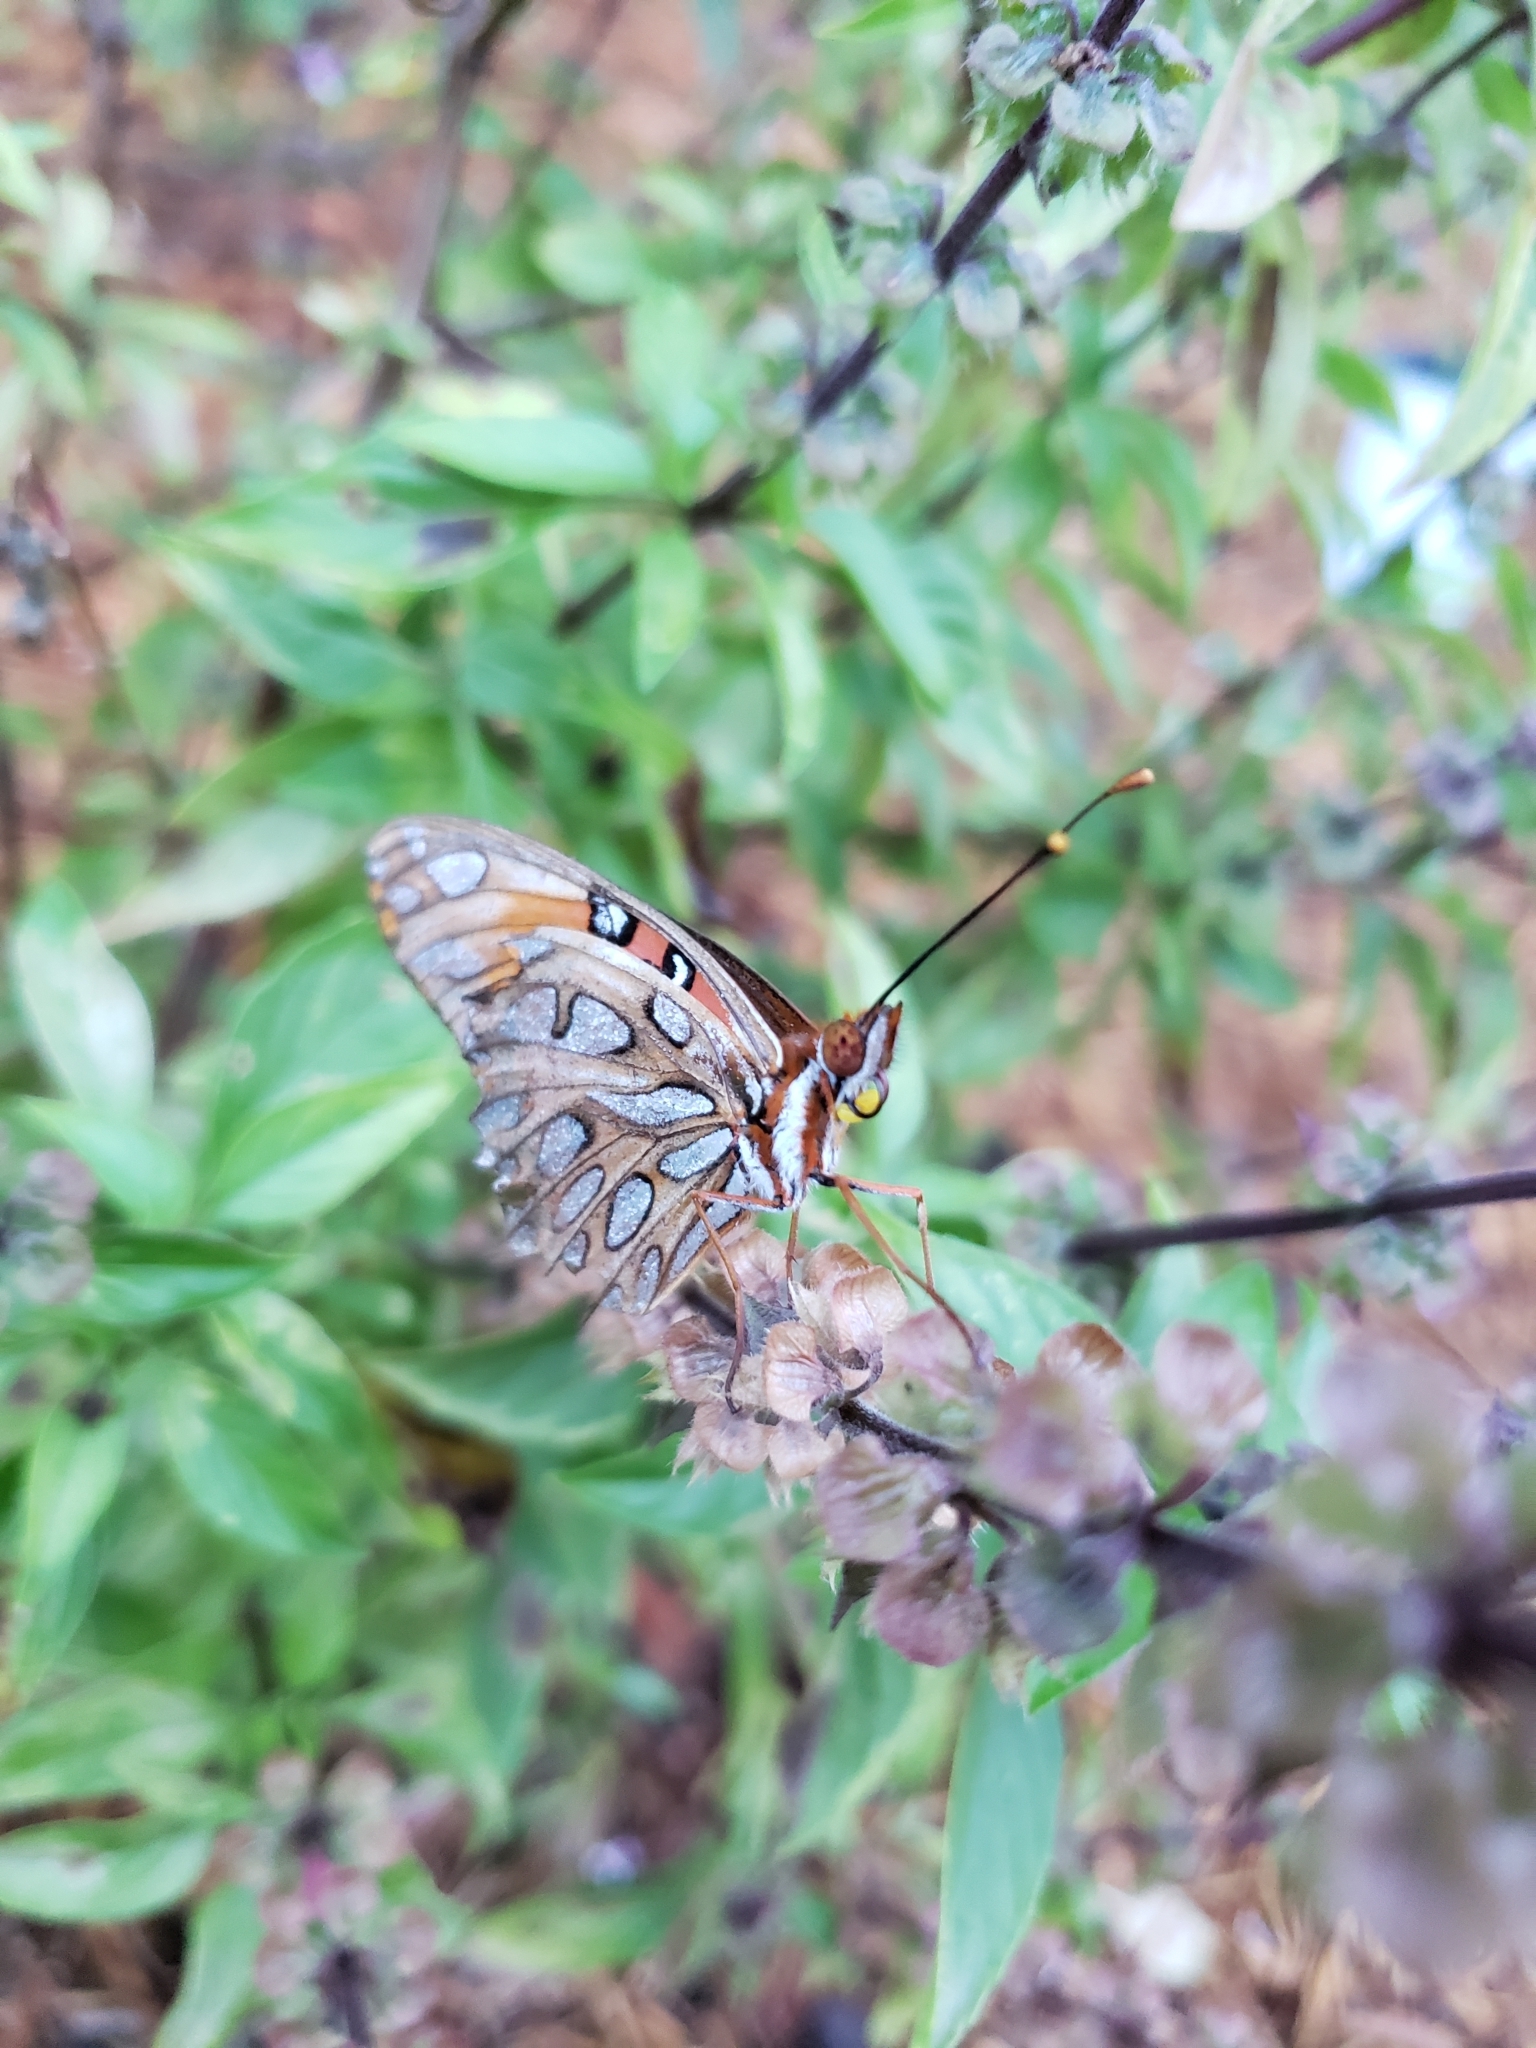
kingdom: Animalia
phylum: Arthropoda
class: Insecta
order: Lepidoptera
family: Nymphalidae
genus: Dione
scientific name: Dione vanillae
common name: Gulf fritillary
